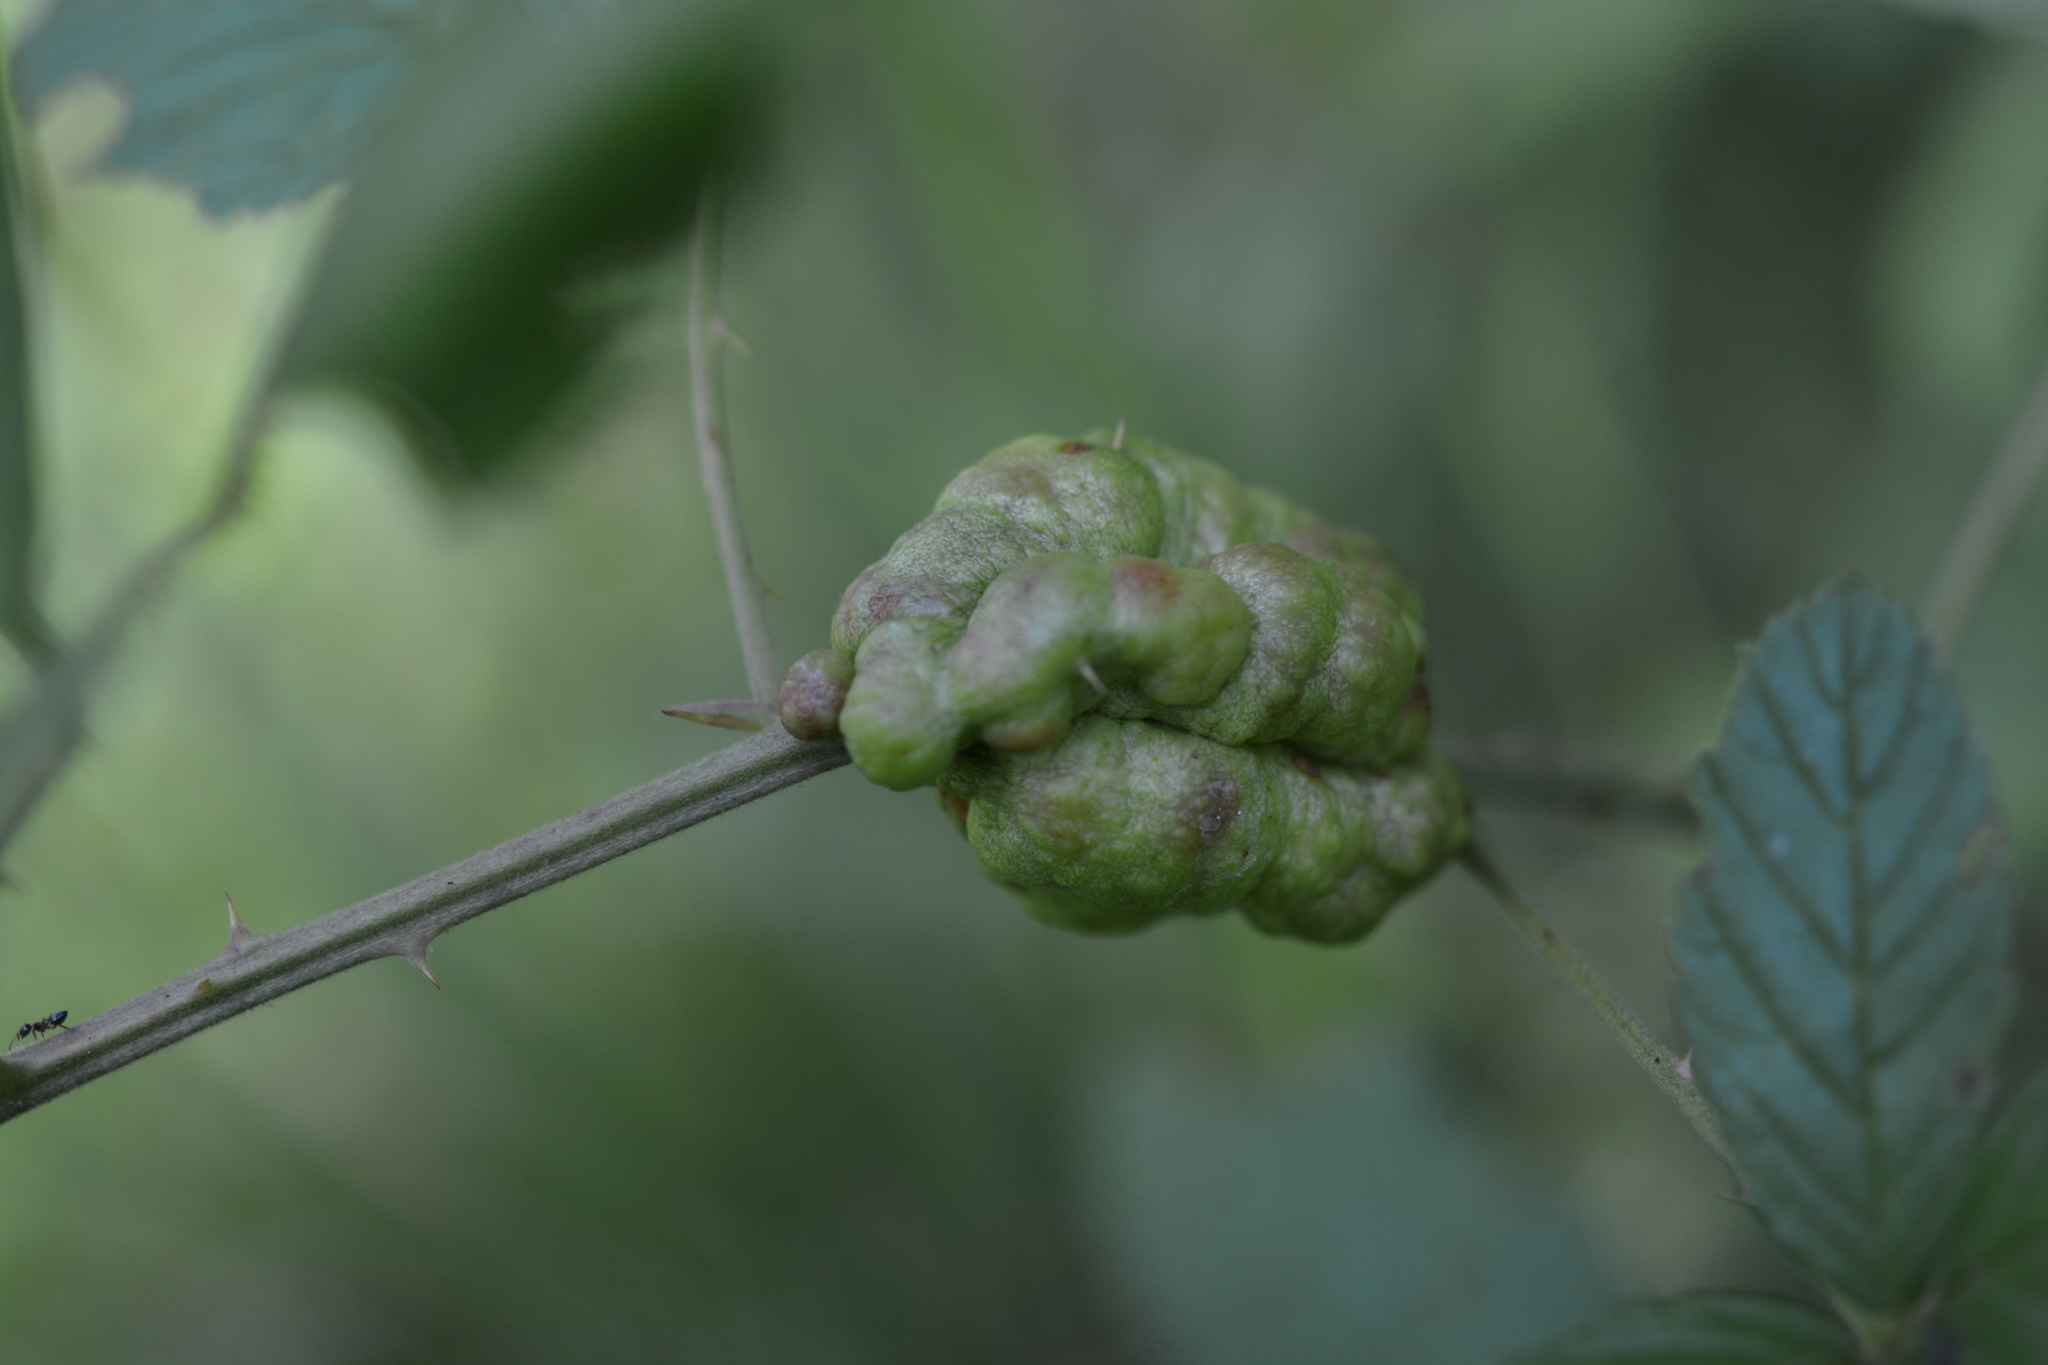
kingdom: Animalia
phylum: Arthropoda
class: Insecta
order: Hymenoptera
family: Cynipidae
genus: Diastrophus
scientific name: Diastrophus
